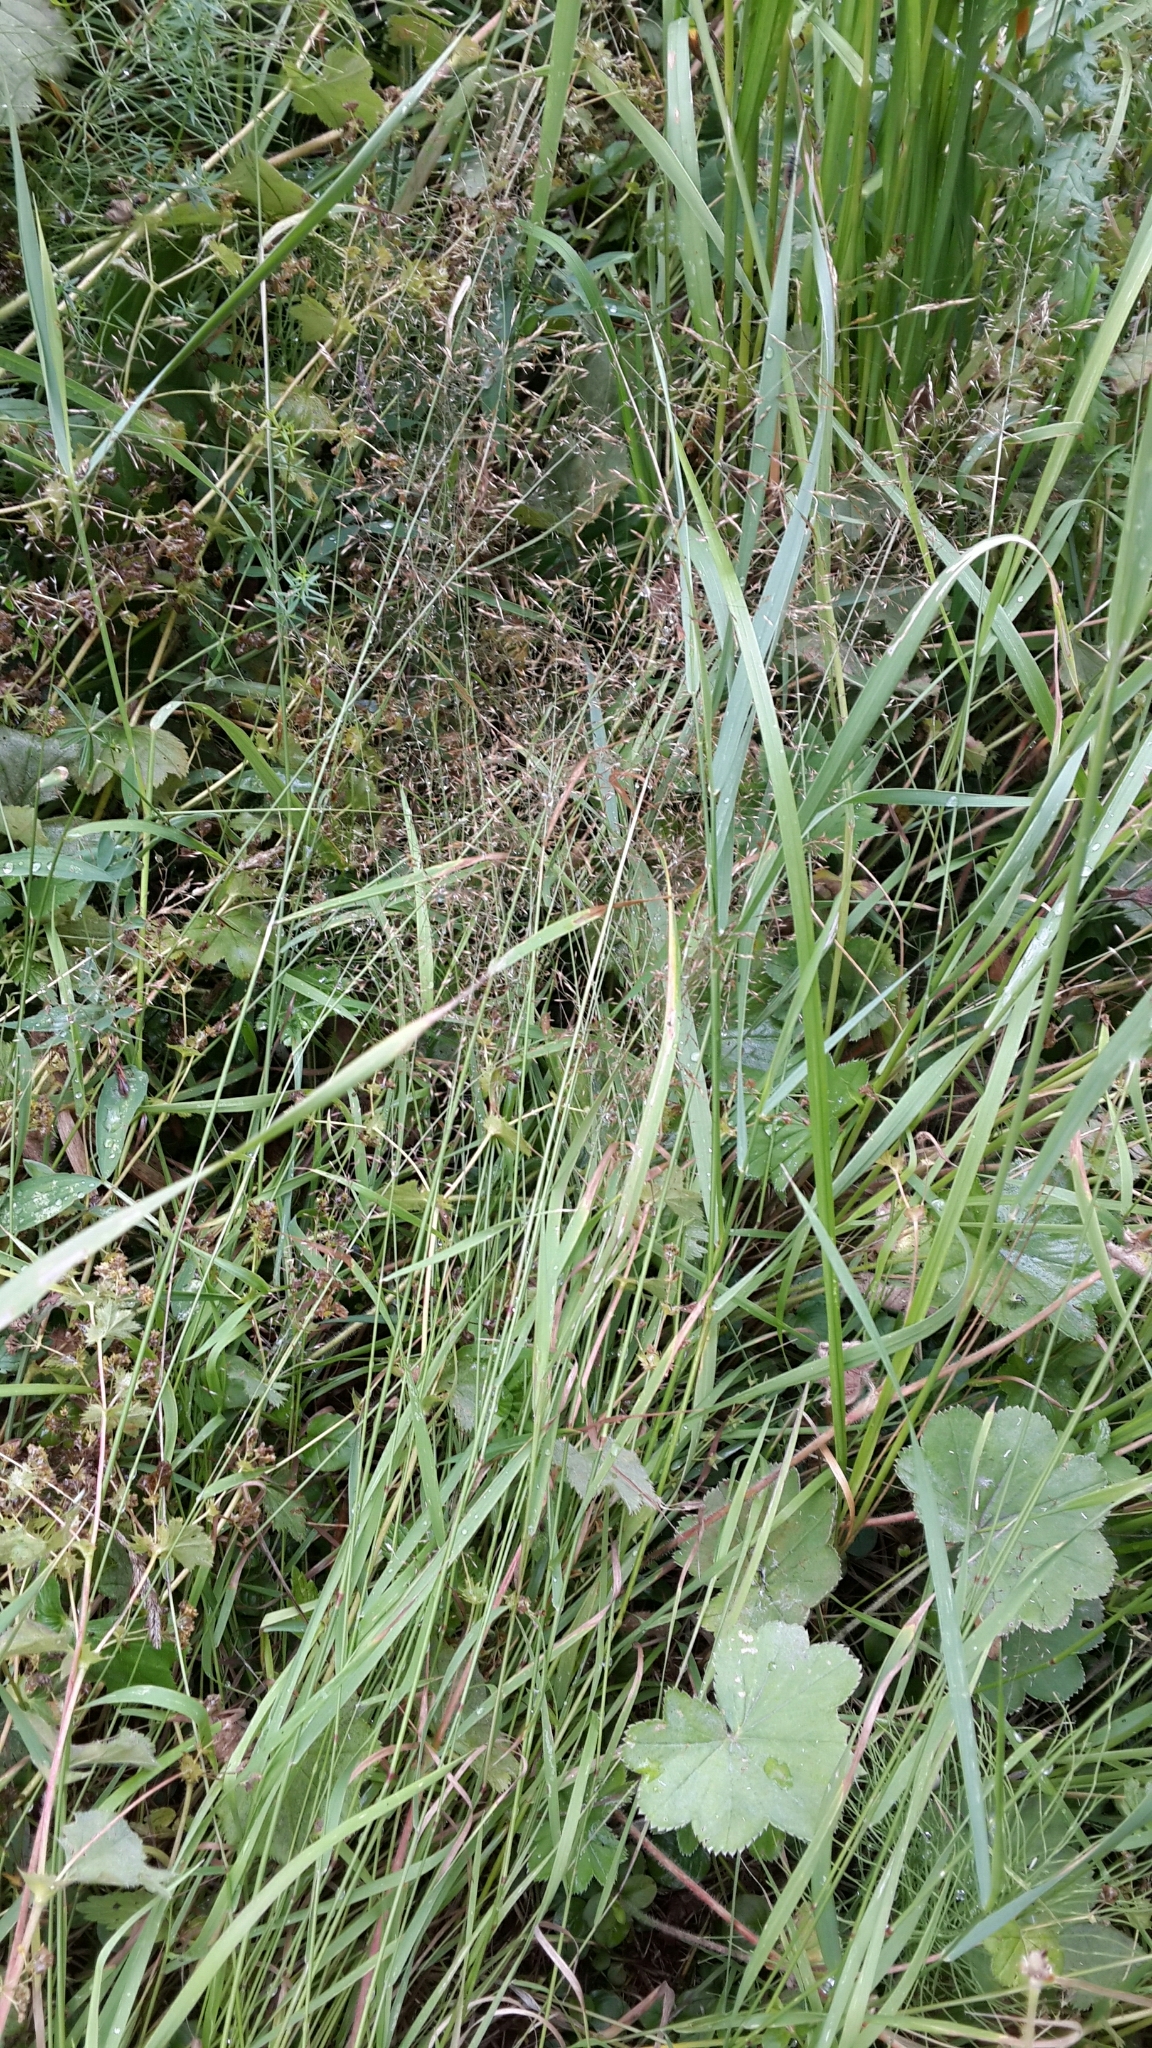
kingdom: Plantae
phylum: Tracheophyta
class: Liliopsida
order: Poales
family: Poaceae
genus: Agrostis
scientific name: Agrostis gigantea
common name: Black bent
